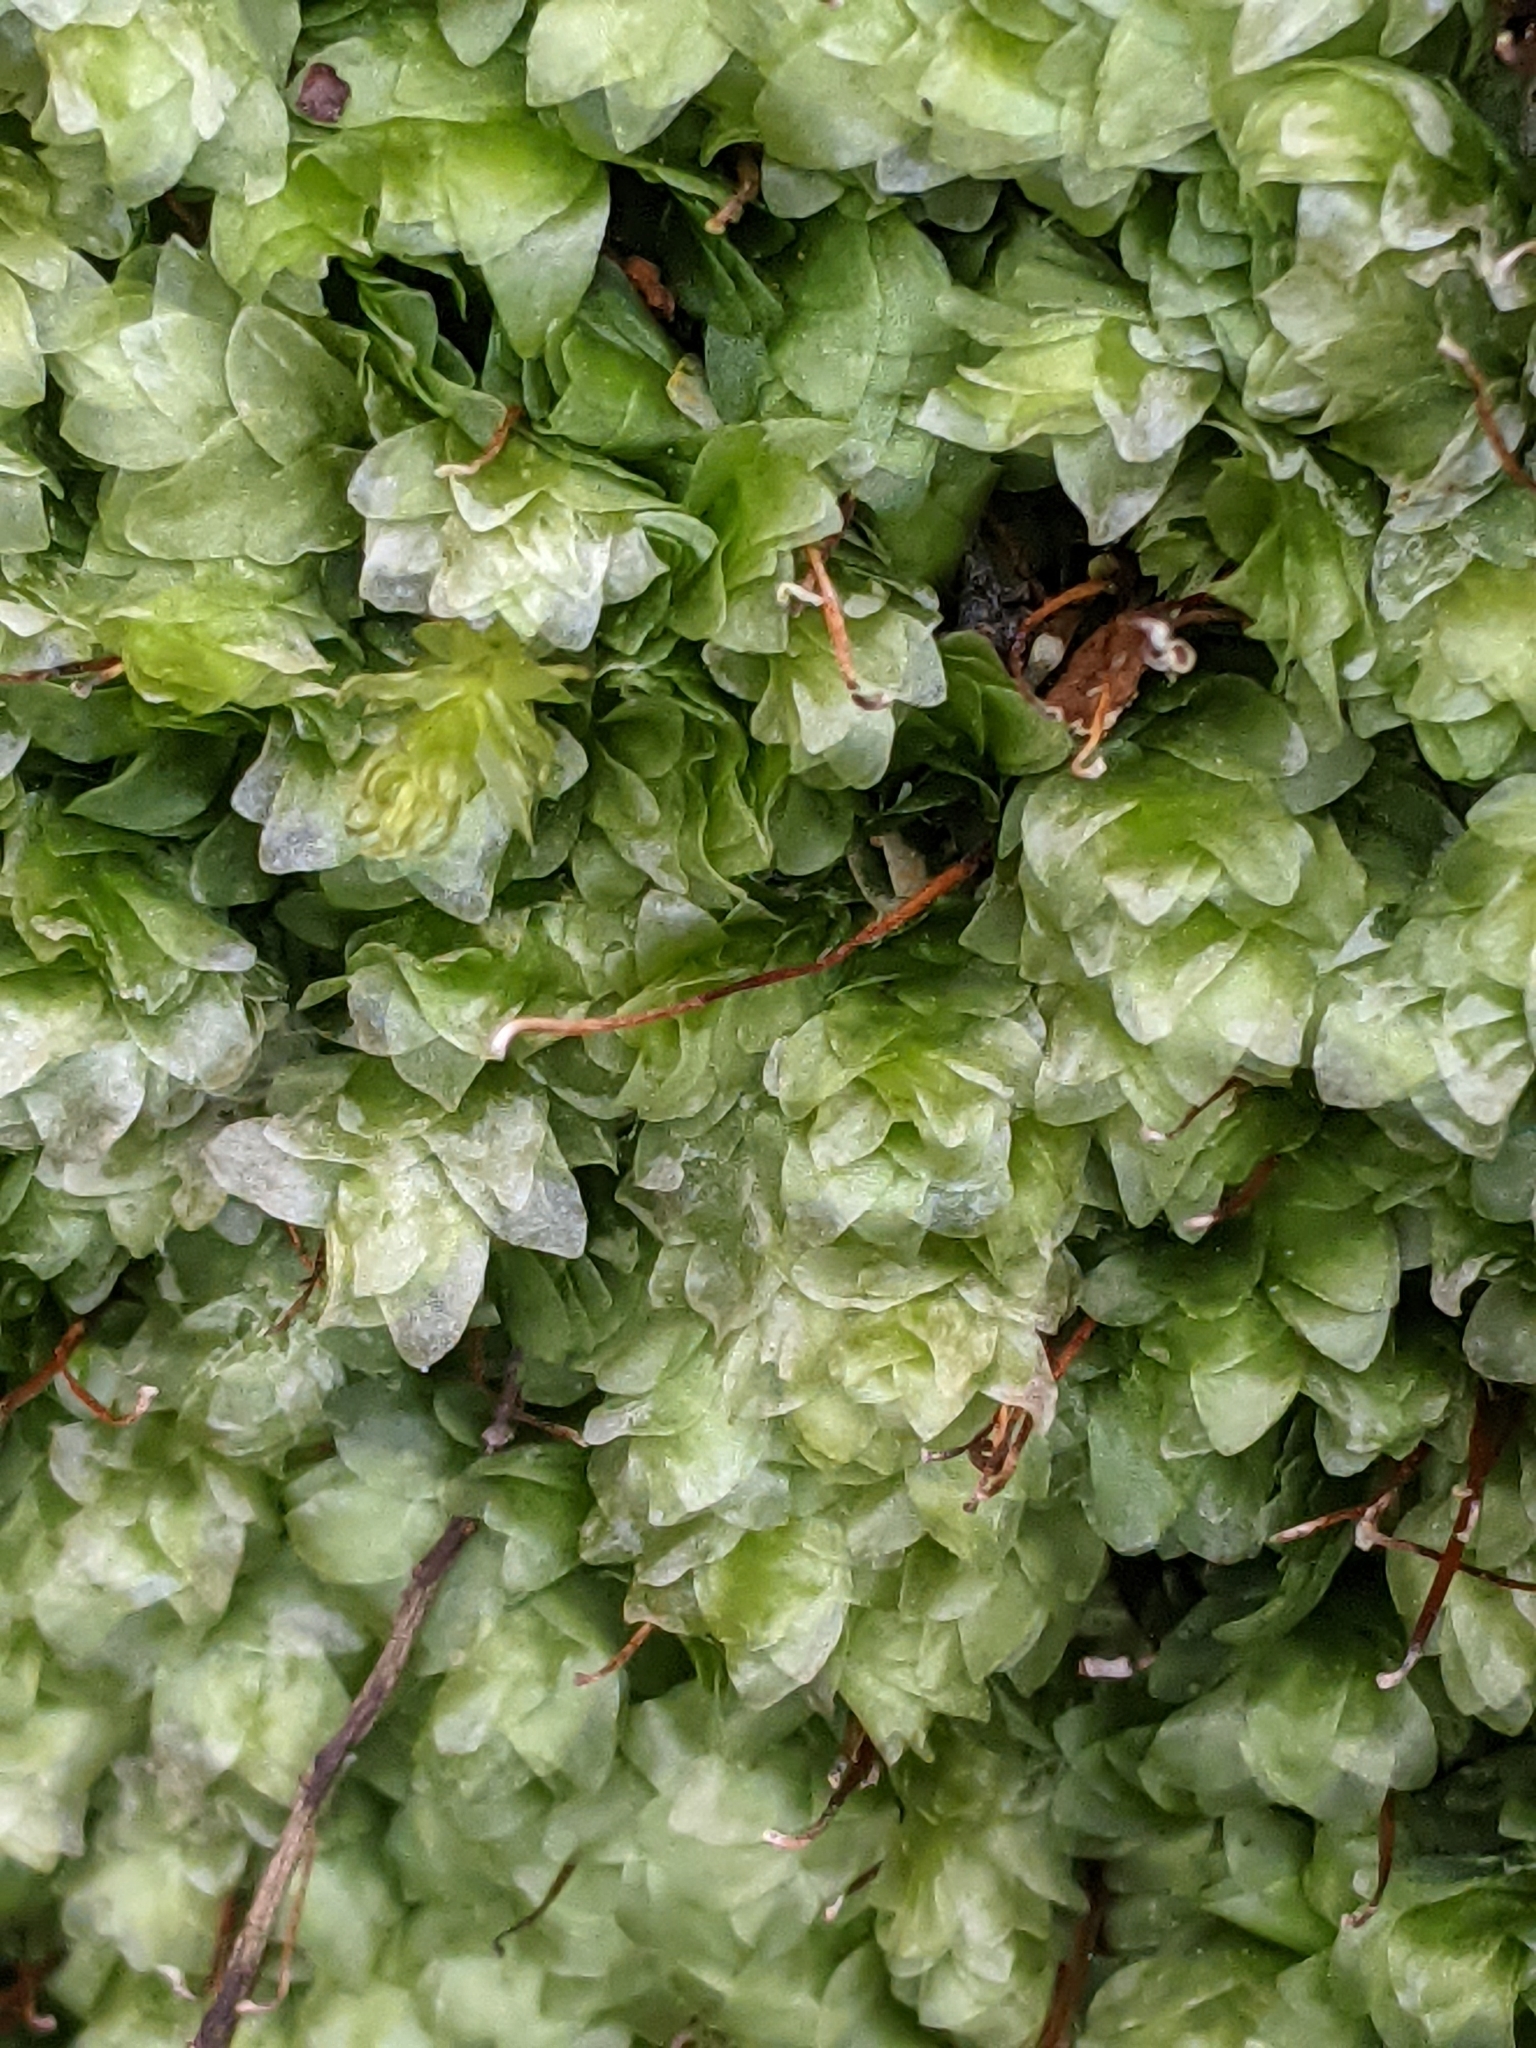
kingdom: Plantae
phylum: Bryophyta
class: Bryopsida
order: Hookeriales
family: Hookeriaceae
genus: Hookeria
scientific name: Hookeria lucens
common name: Shining hookeria
